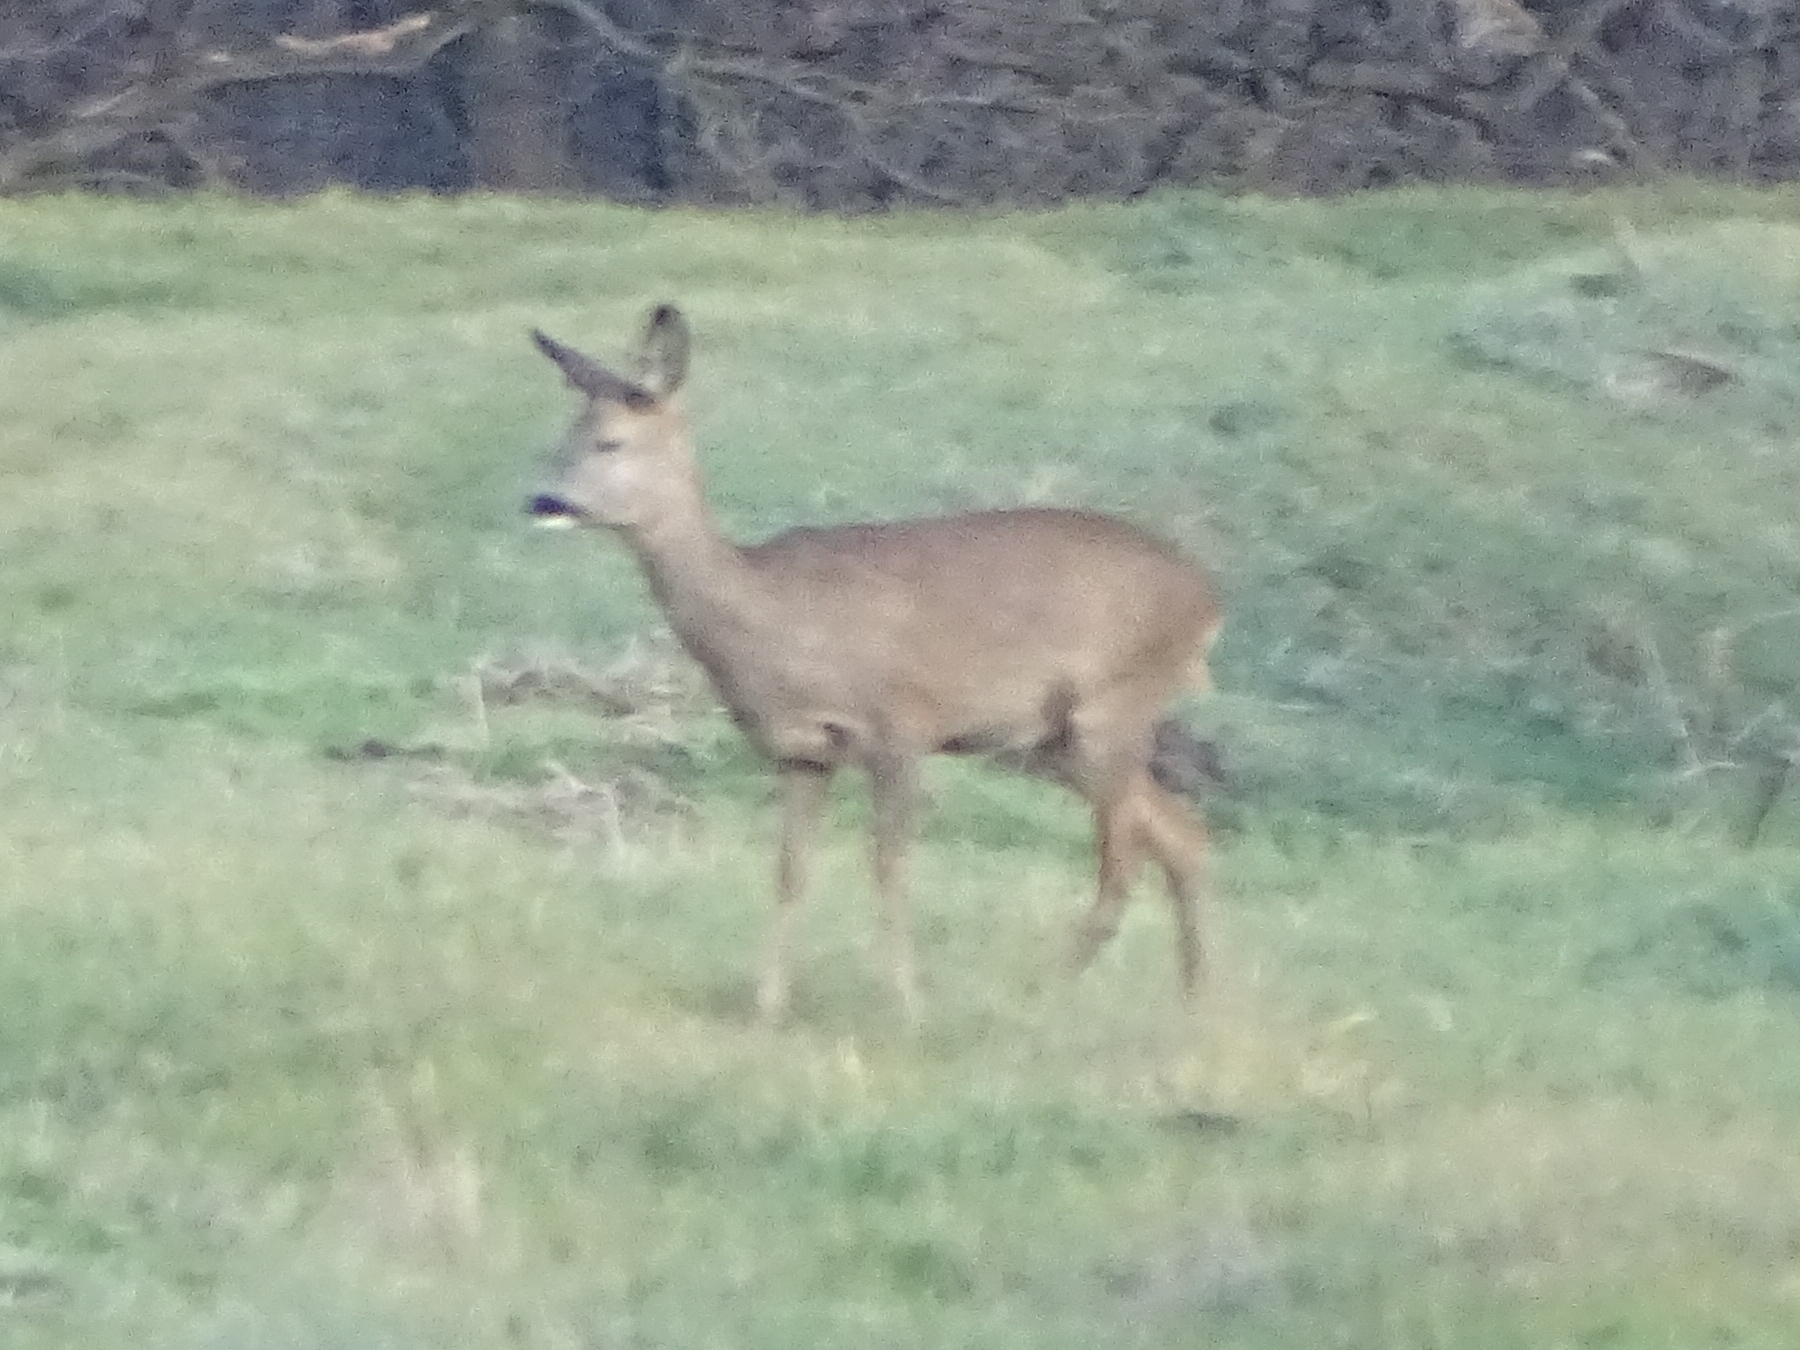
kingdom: Animalia
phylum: Chordata
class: Mammalia
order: Artiodactyla
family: Cervidae
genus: Capreolus
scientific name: Capreolus capreolus
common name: Western roe deer
